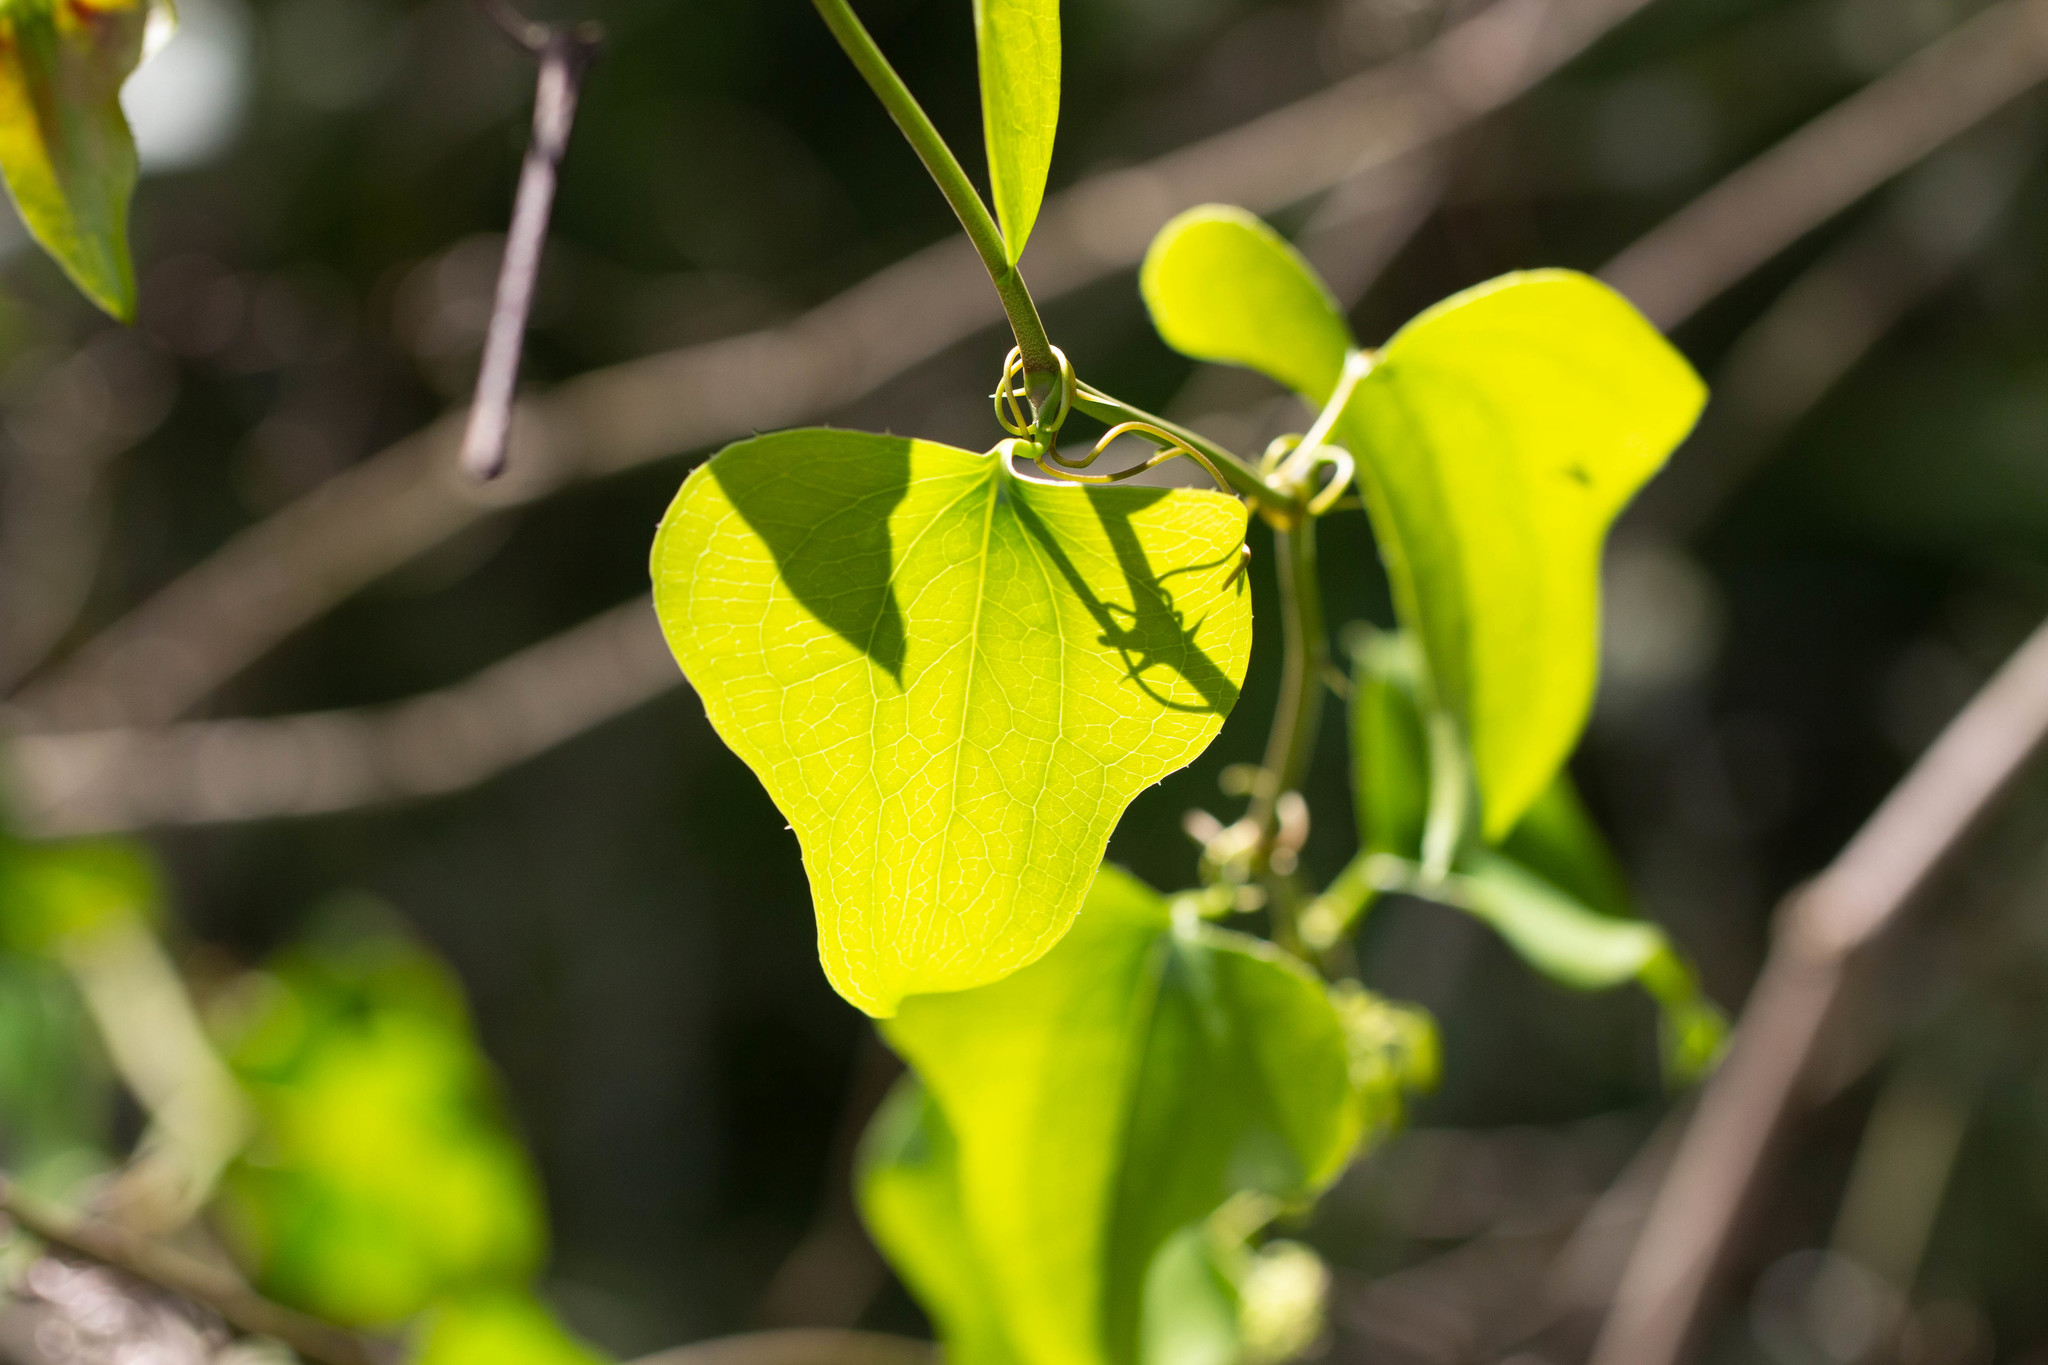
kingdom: Plantae
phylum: Tracheophyta
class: Liliopsida
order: Liliales
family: Smilacaceae
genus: Smilax
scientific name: Smilax bona-nox
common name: Catbrier
